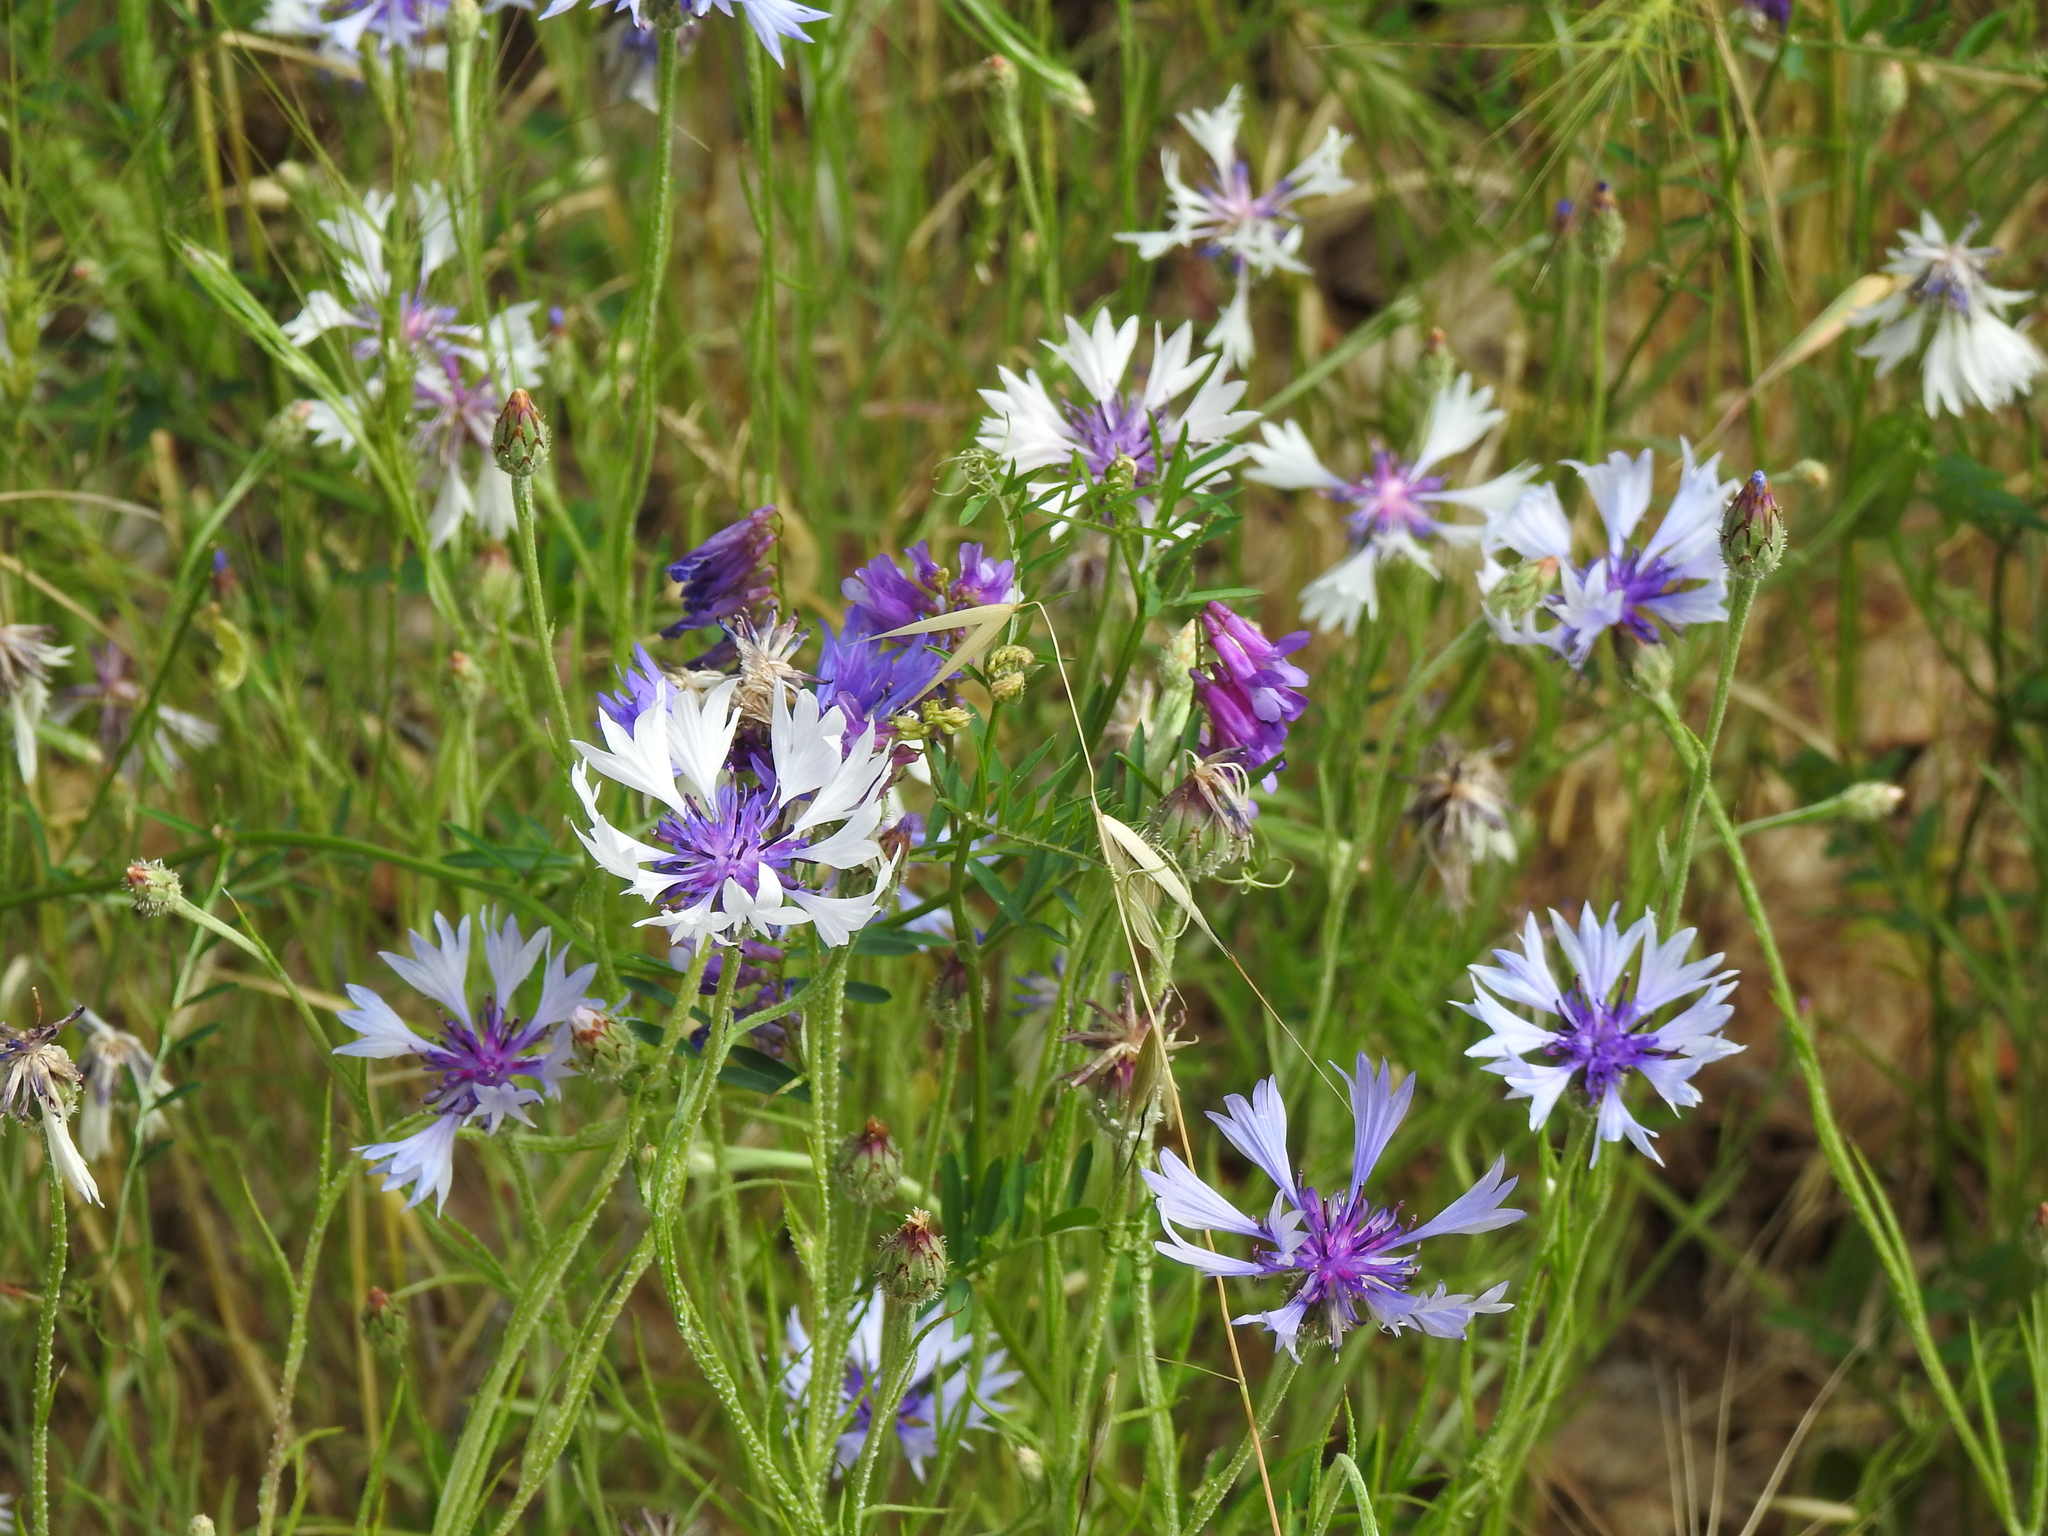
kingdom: Plantae
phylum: Tracheophyta
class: Magnoliopsida
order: Asterales
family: Asteraceae
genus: Centaurea
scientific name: Centaurea cyanus
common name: Cornflower
